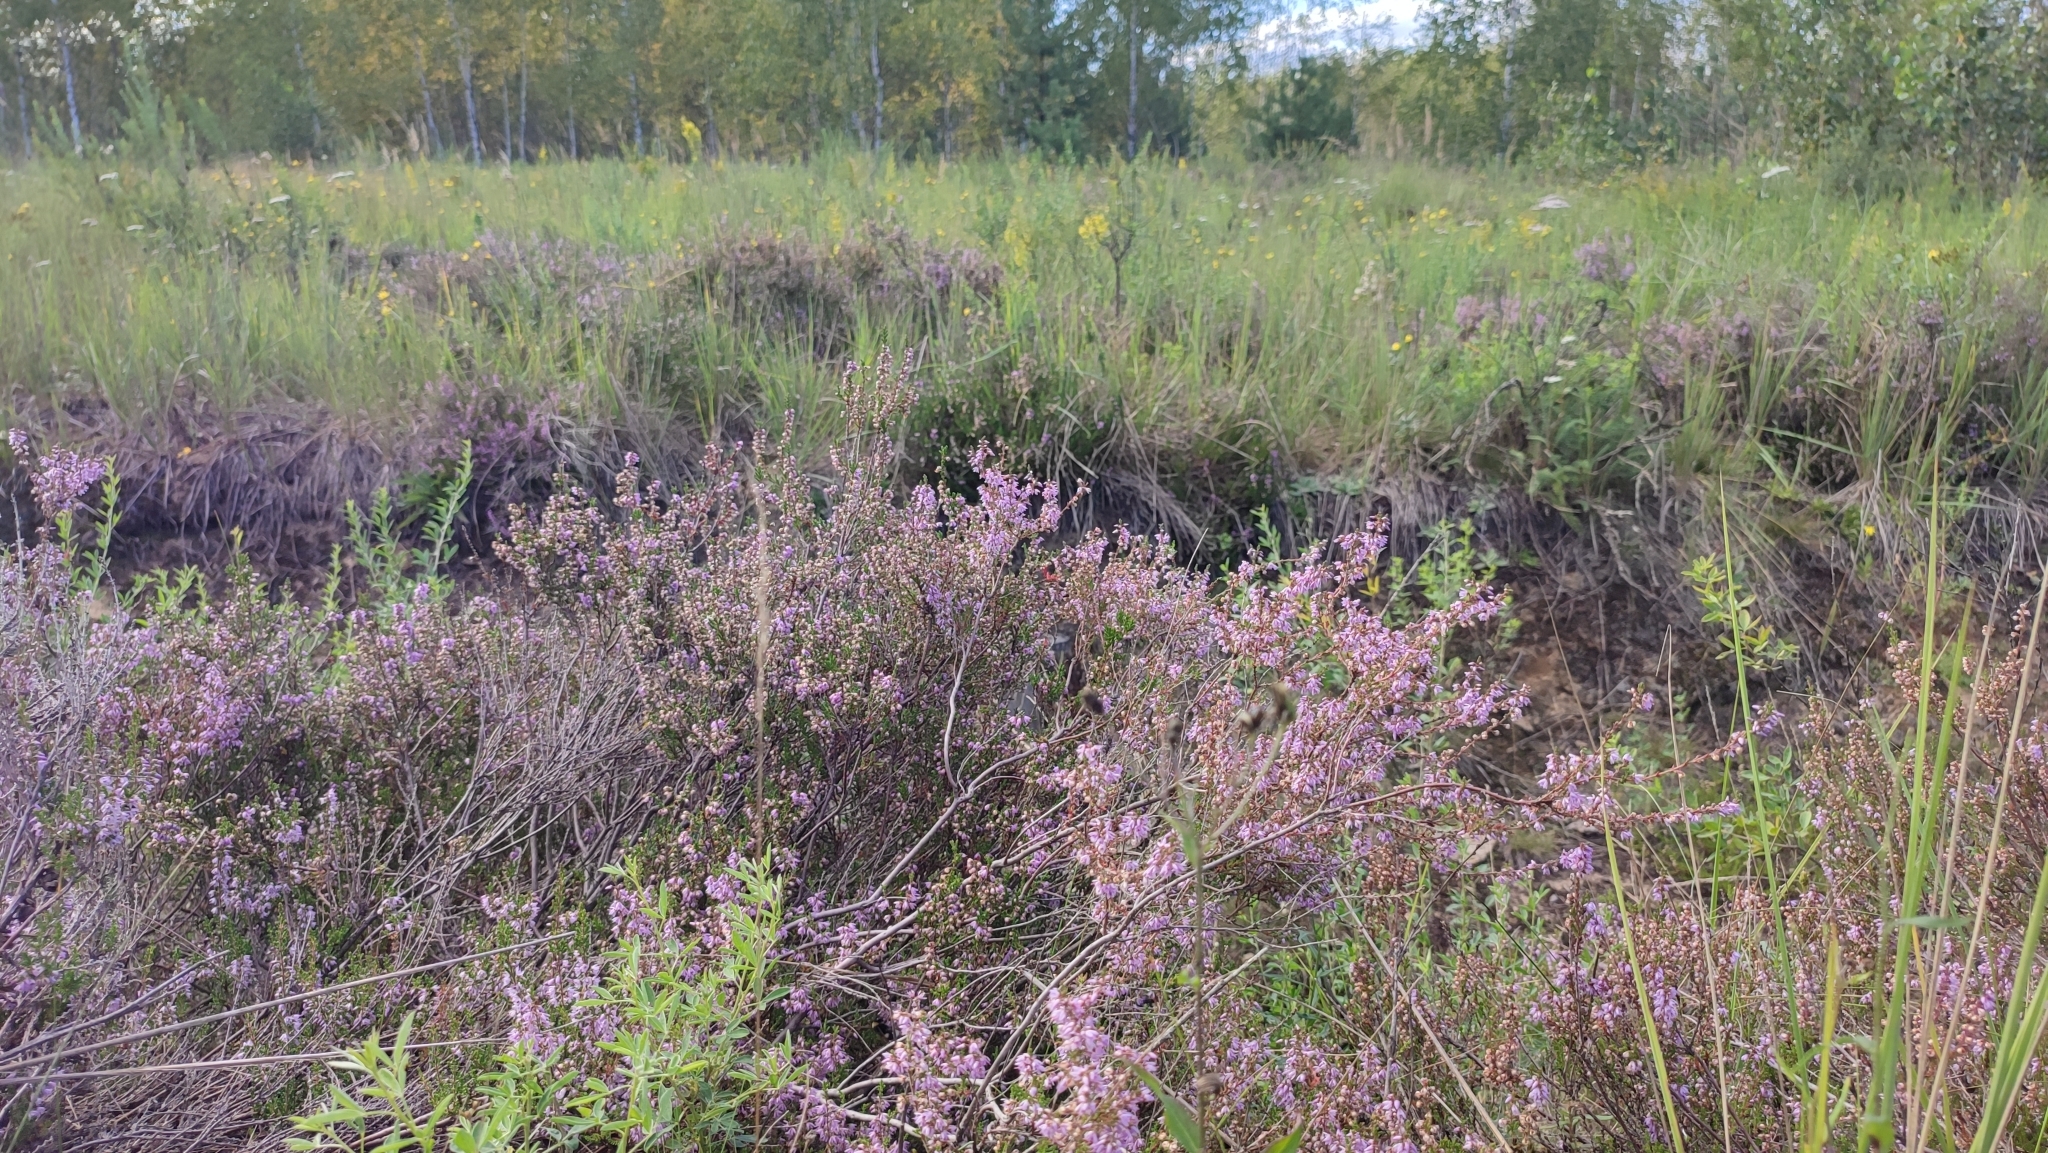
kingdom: Plantae
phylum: Tracheophyta
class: Magnoliopsida
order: Ericales
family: Ericaceae
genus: Calluna
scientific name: Calluna vulgaris
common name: Heather
